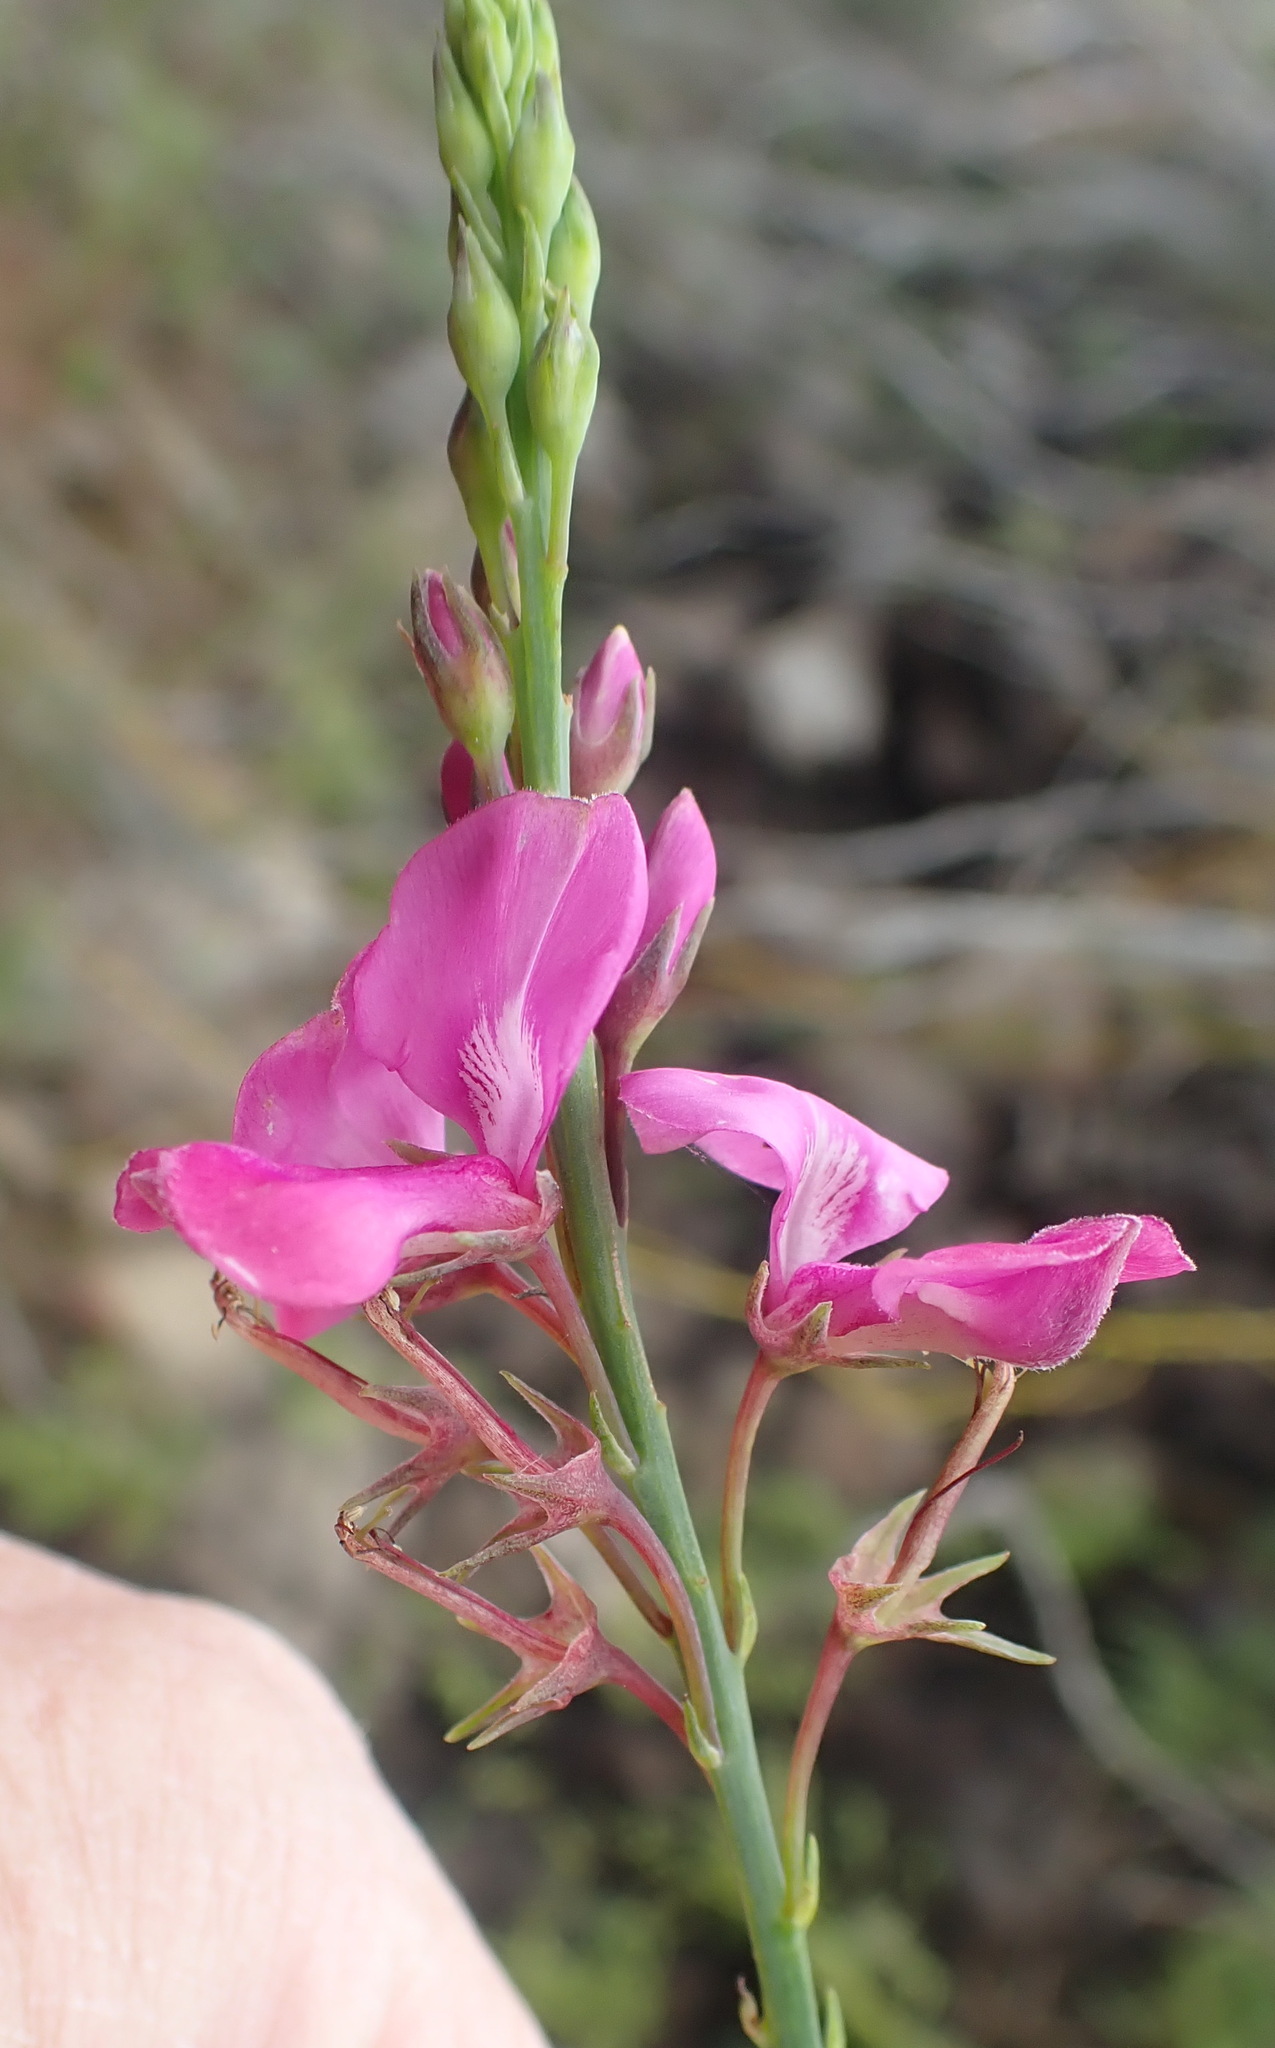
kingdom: Plantae
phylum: Tracheophyta
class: Magnoliopsida
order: Fabales
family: Fabaceae
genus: Indigofera
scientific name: Indigofera filifolia
